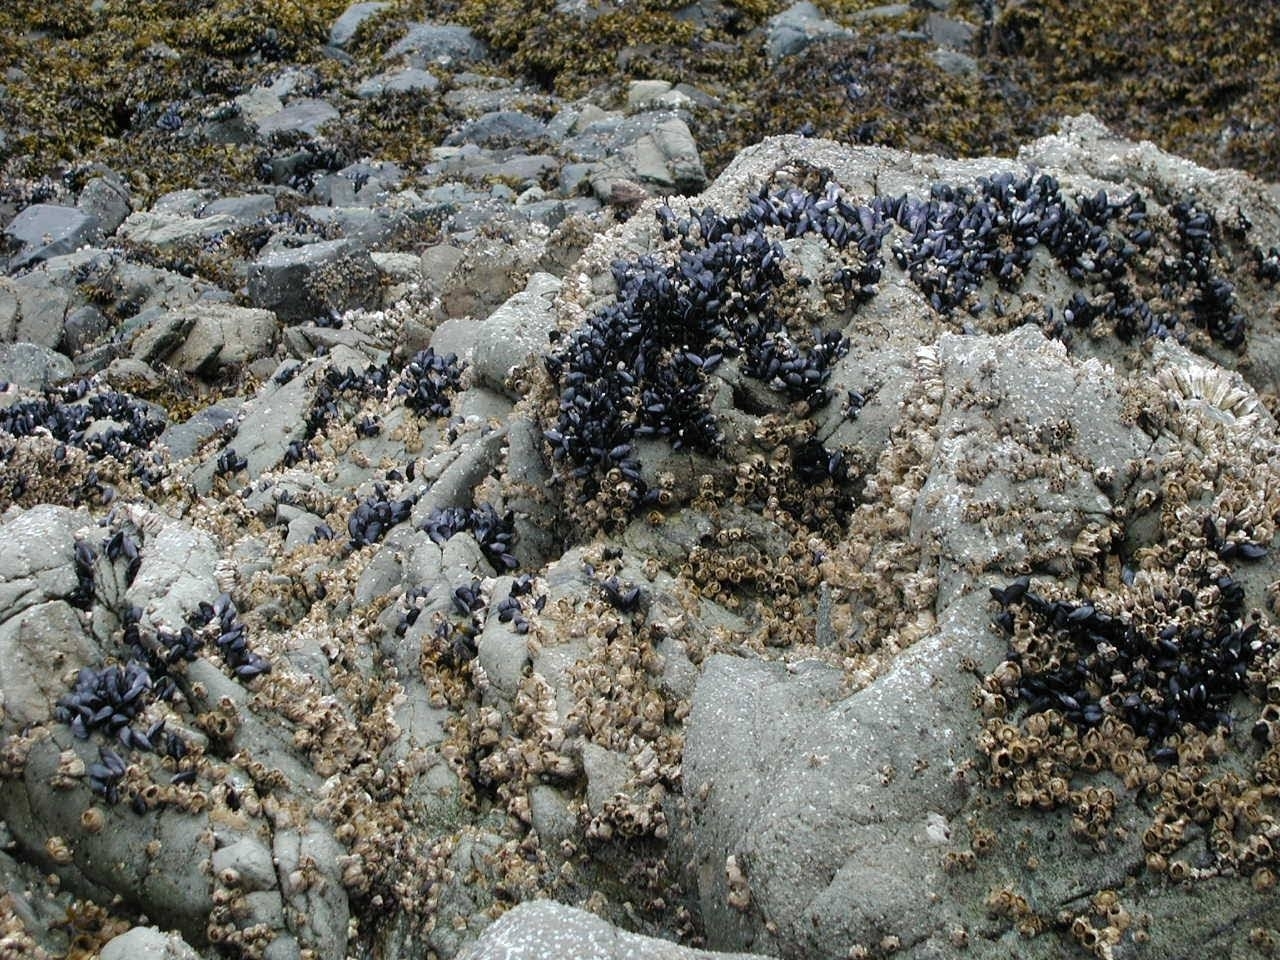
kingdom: Animalia
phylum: Mollusca
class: Bivalvia
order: Mytilida
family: Mytilidae
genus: Mytilus
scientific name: Mytilus trossulus
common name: Northern blue mussel
